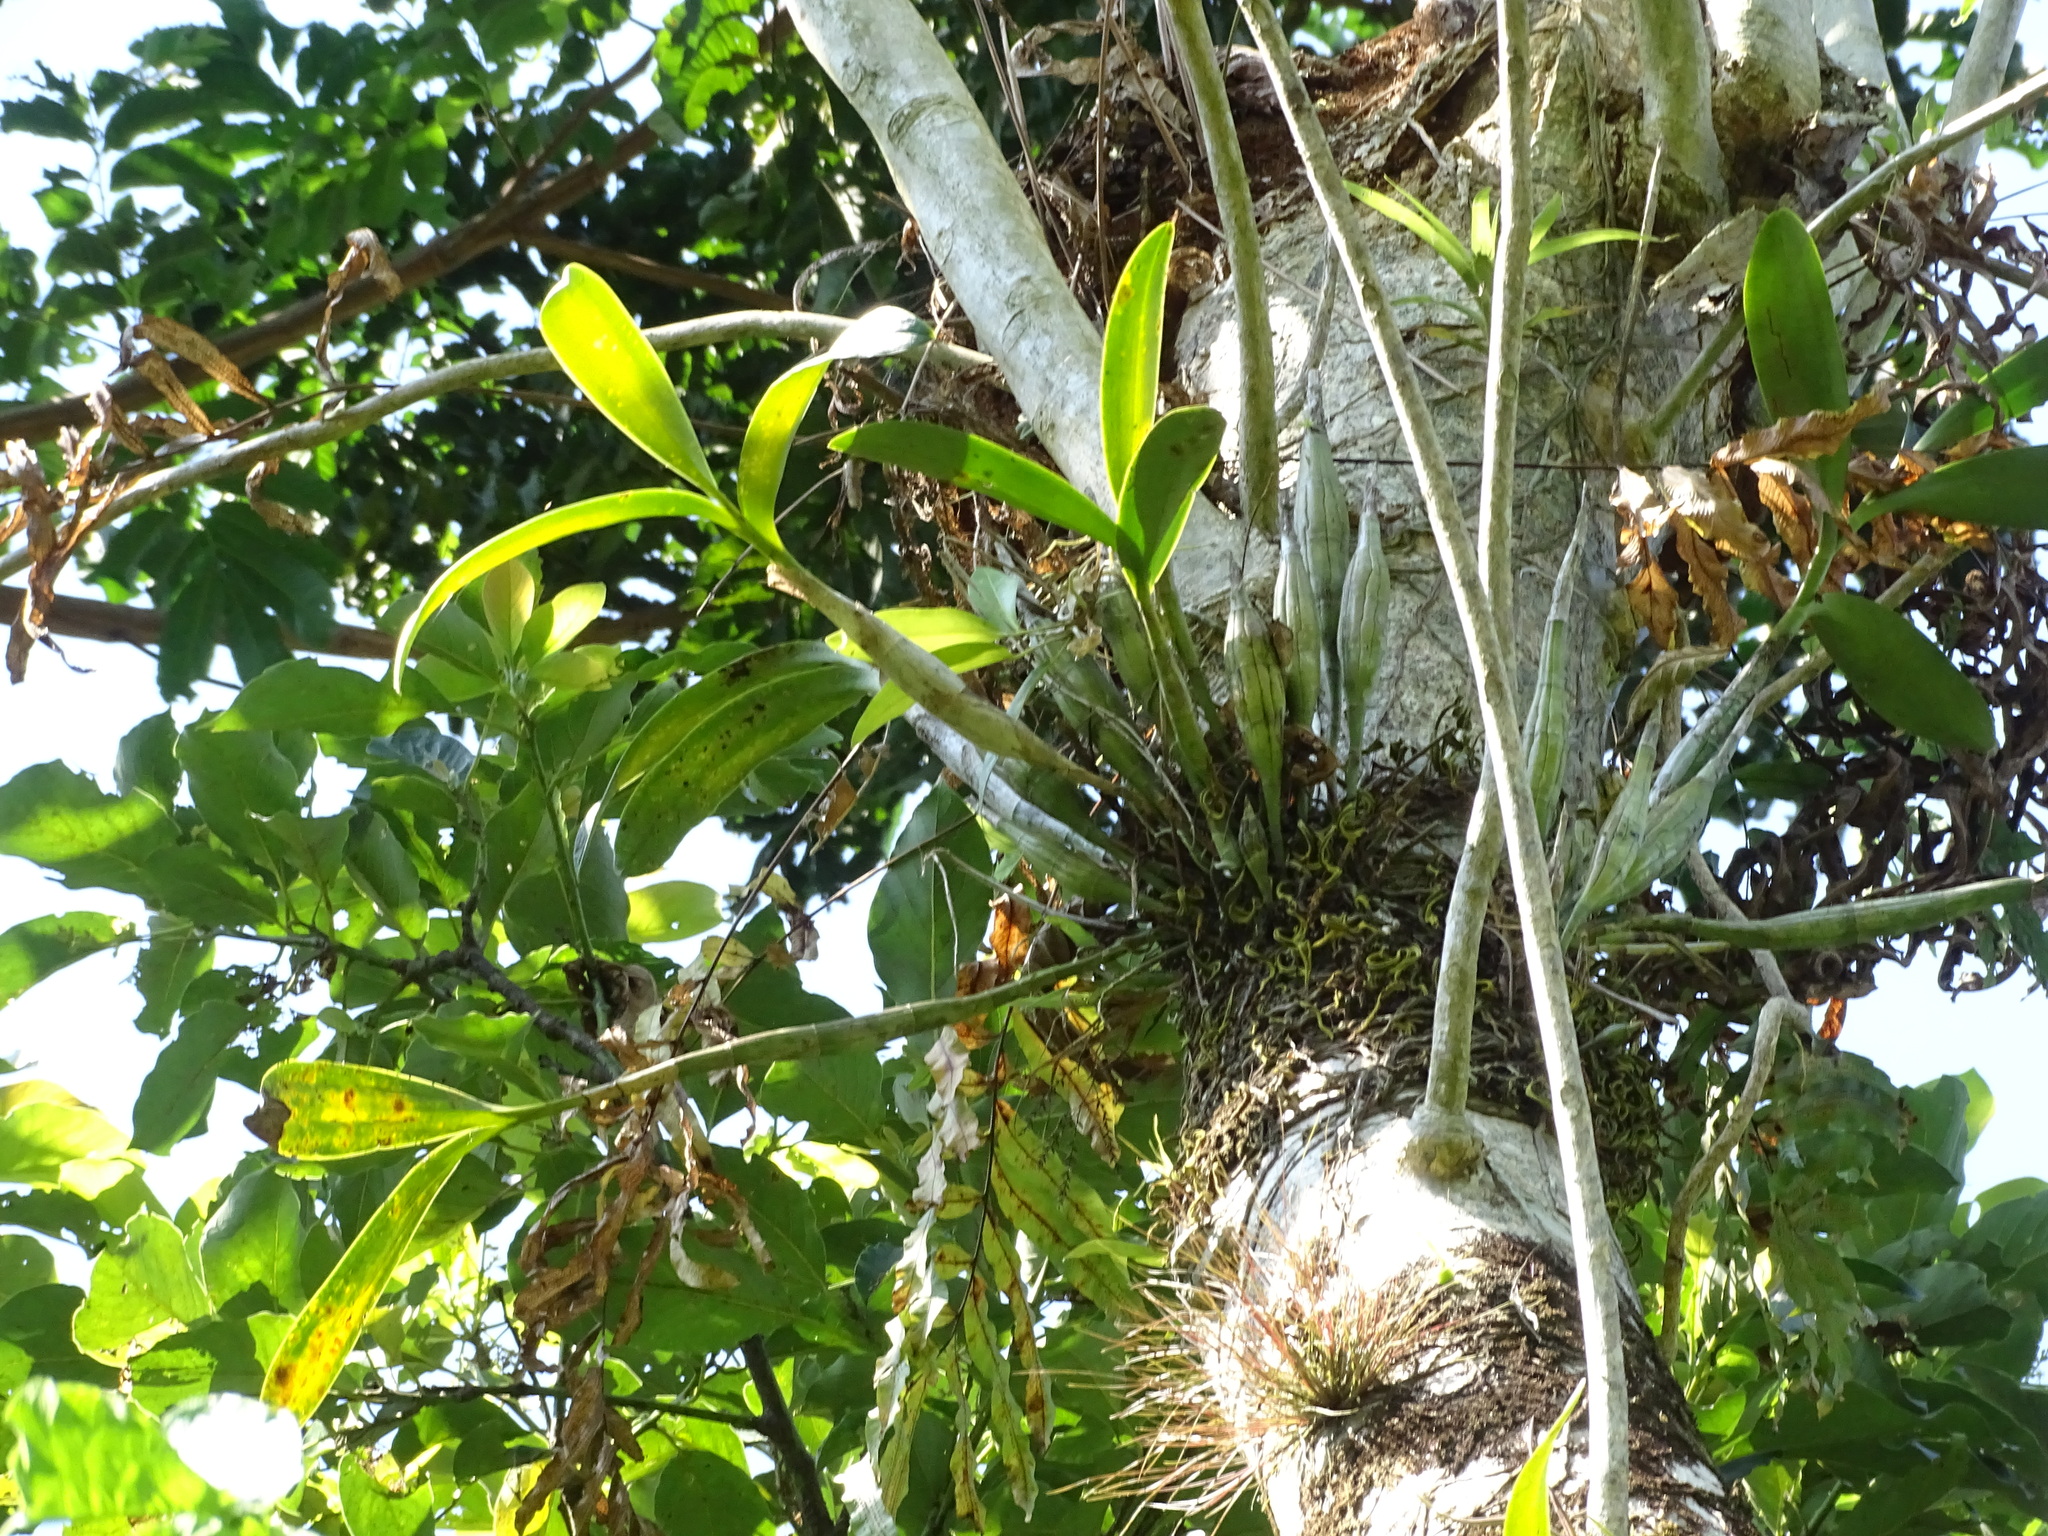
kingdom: Plantae
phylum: Tracheophyta
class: Liliopsida
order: Asparagales
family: Orchidaceae
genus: Epidendrum
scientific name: Epidendrum stamfordianum
